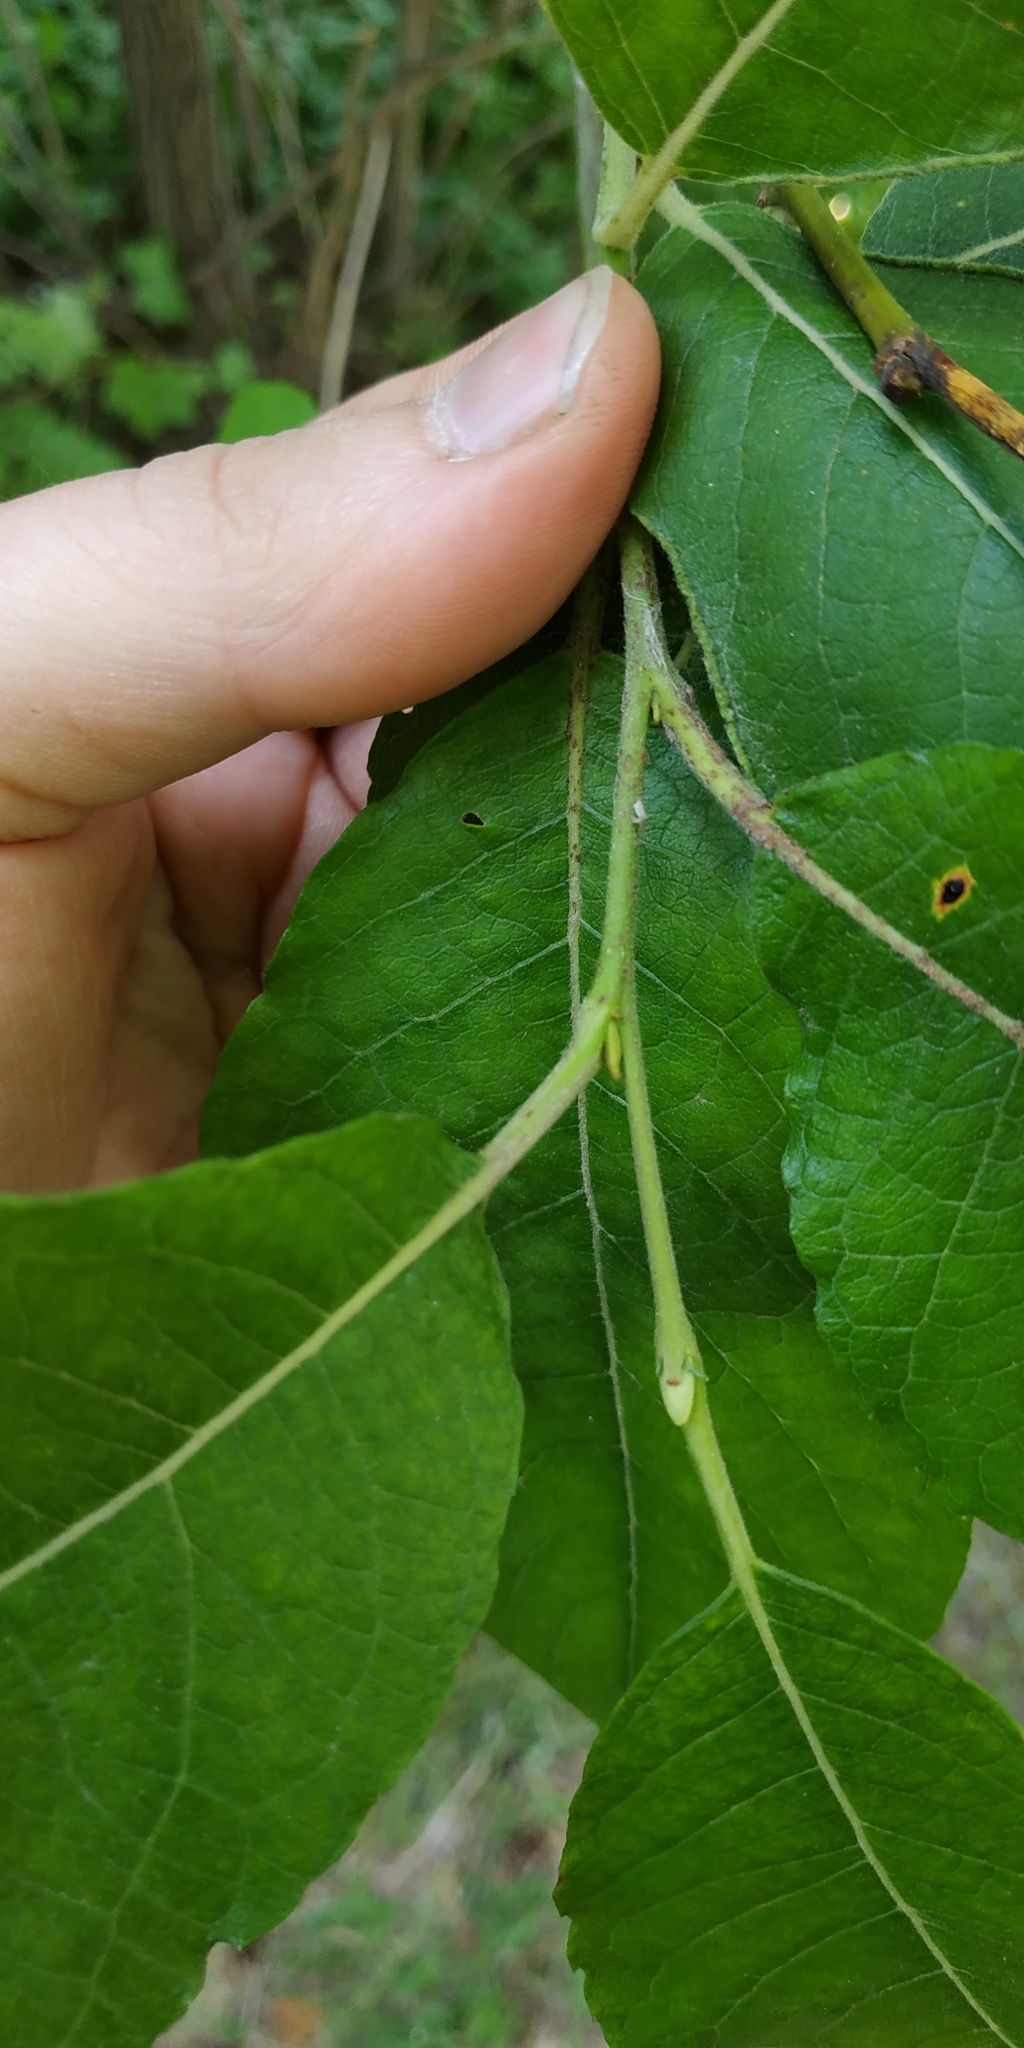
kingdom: Plantae
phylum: Tracheophyta
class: Magnoliopsida
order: Malpighiales
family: Salicaceae
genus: Salix
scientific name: Salix caprea
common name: Goat willow
